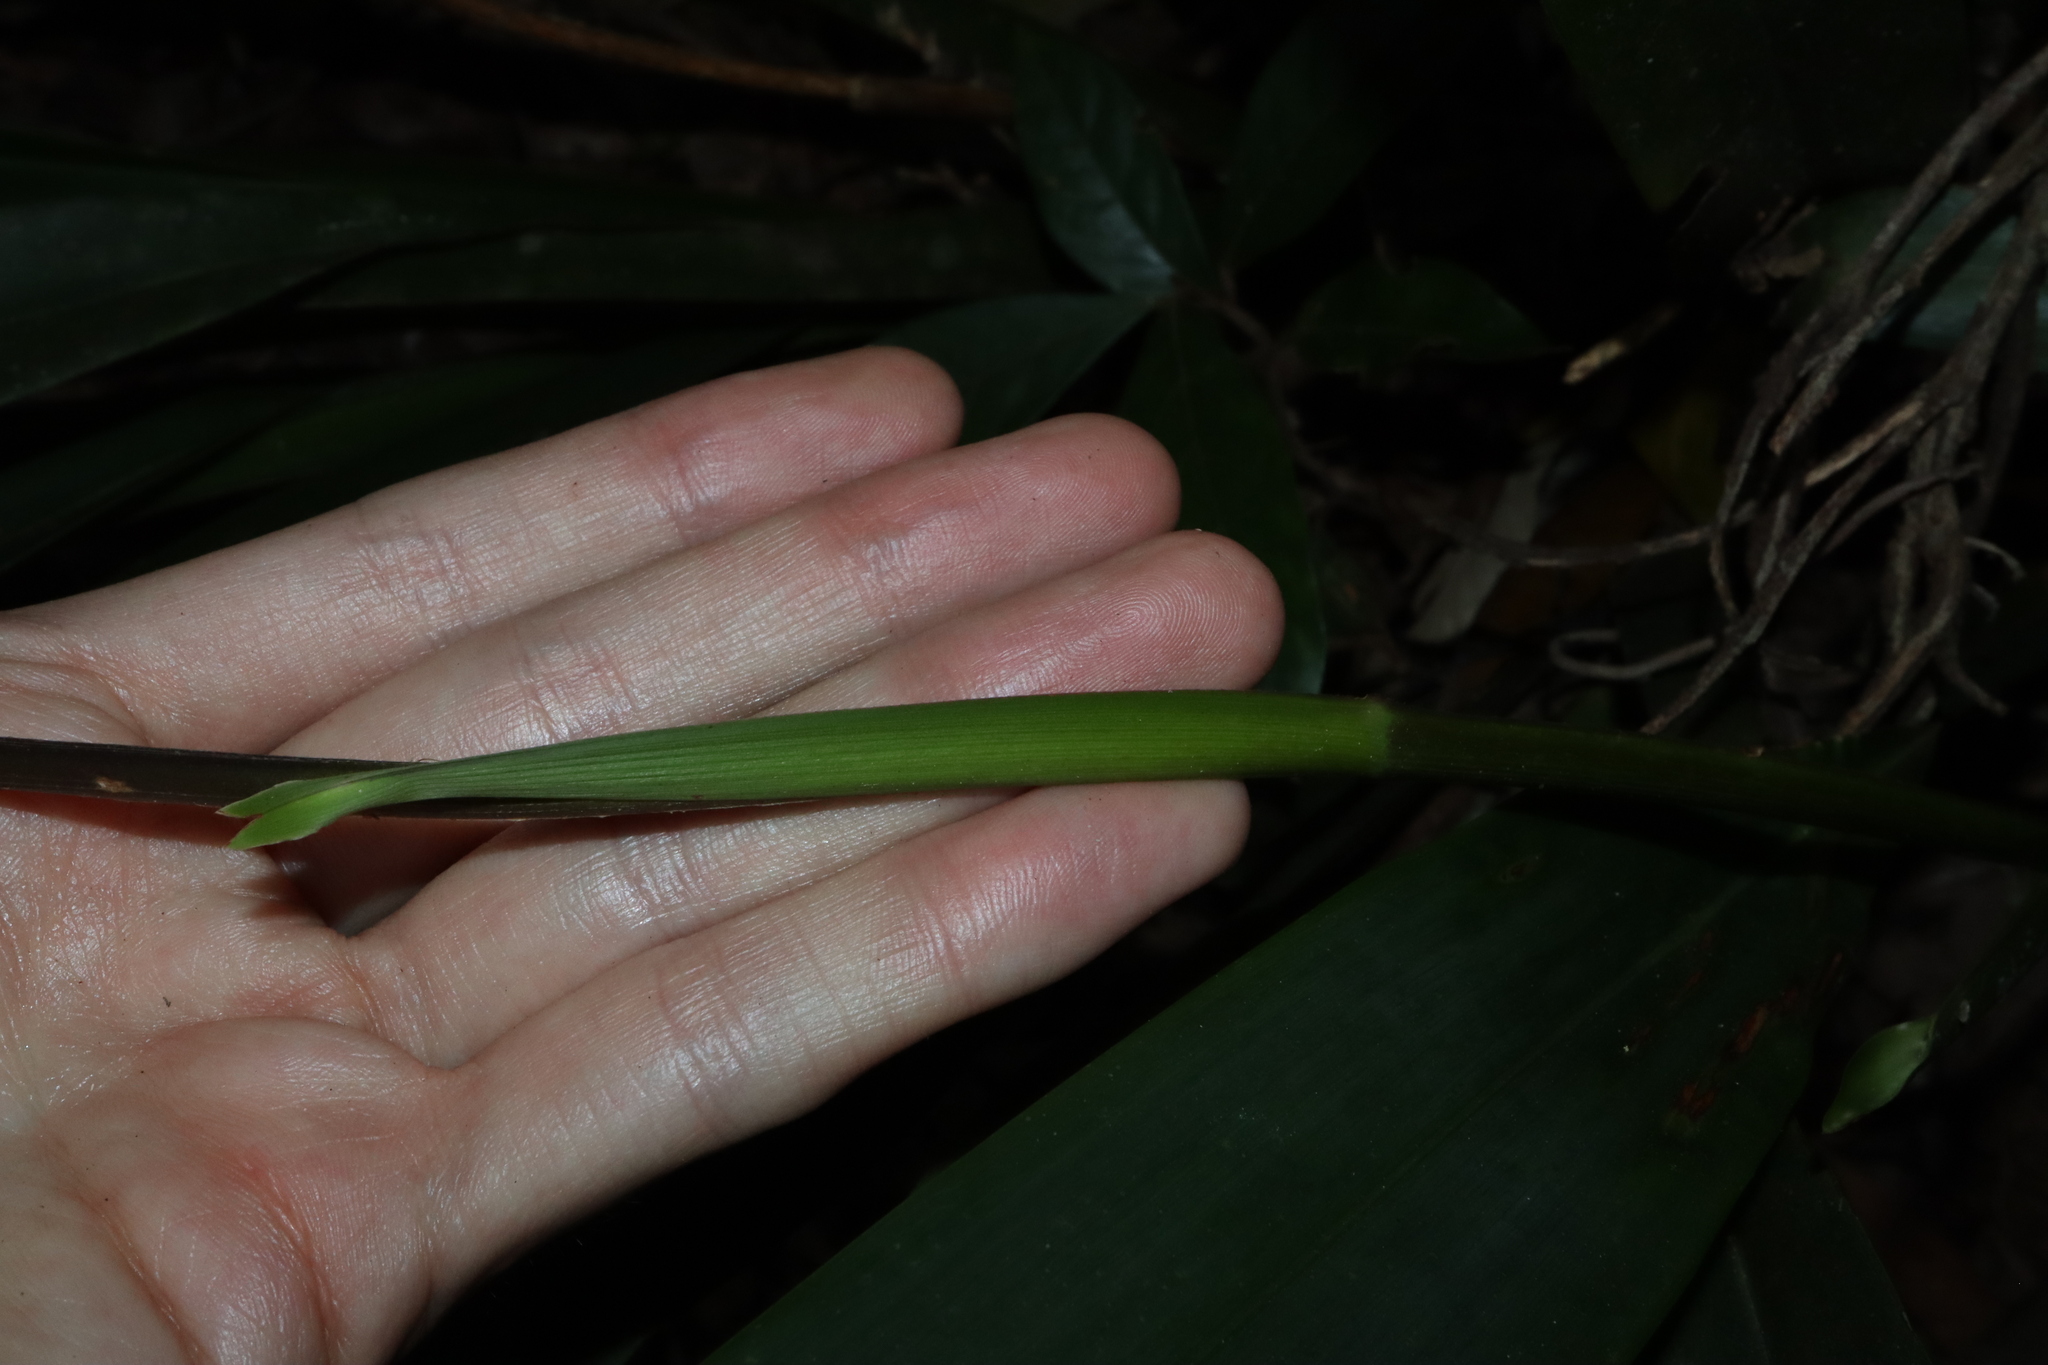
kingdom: Plantae
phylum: Tracheophyta
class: Liliopsida
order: Asparagales
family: Asphodelaceae
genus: Dianella
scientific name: Dianella atraxis
